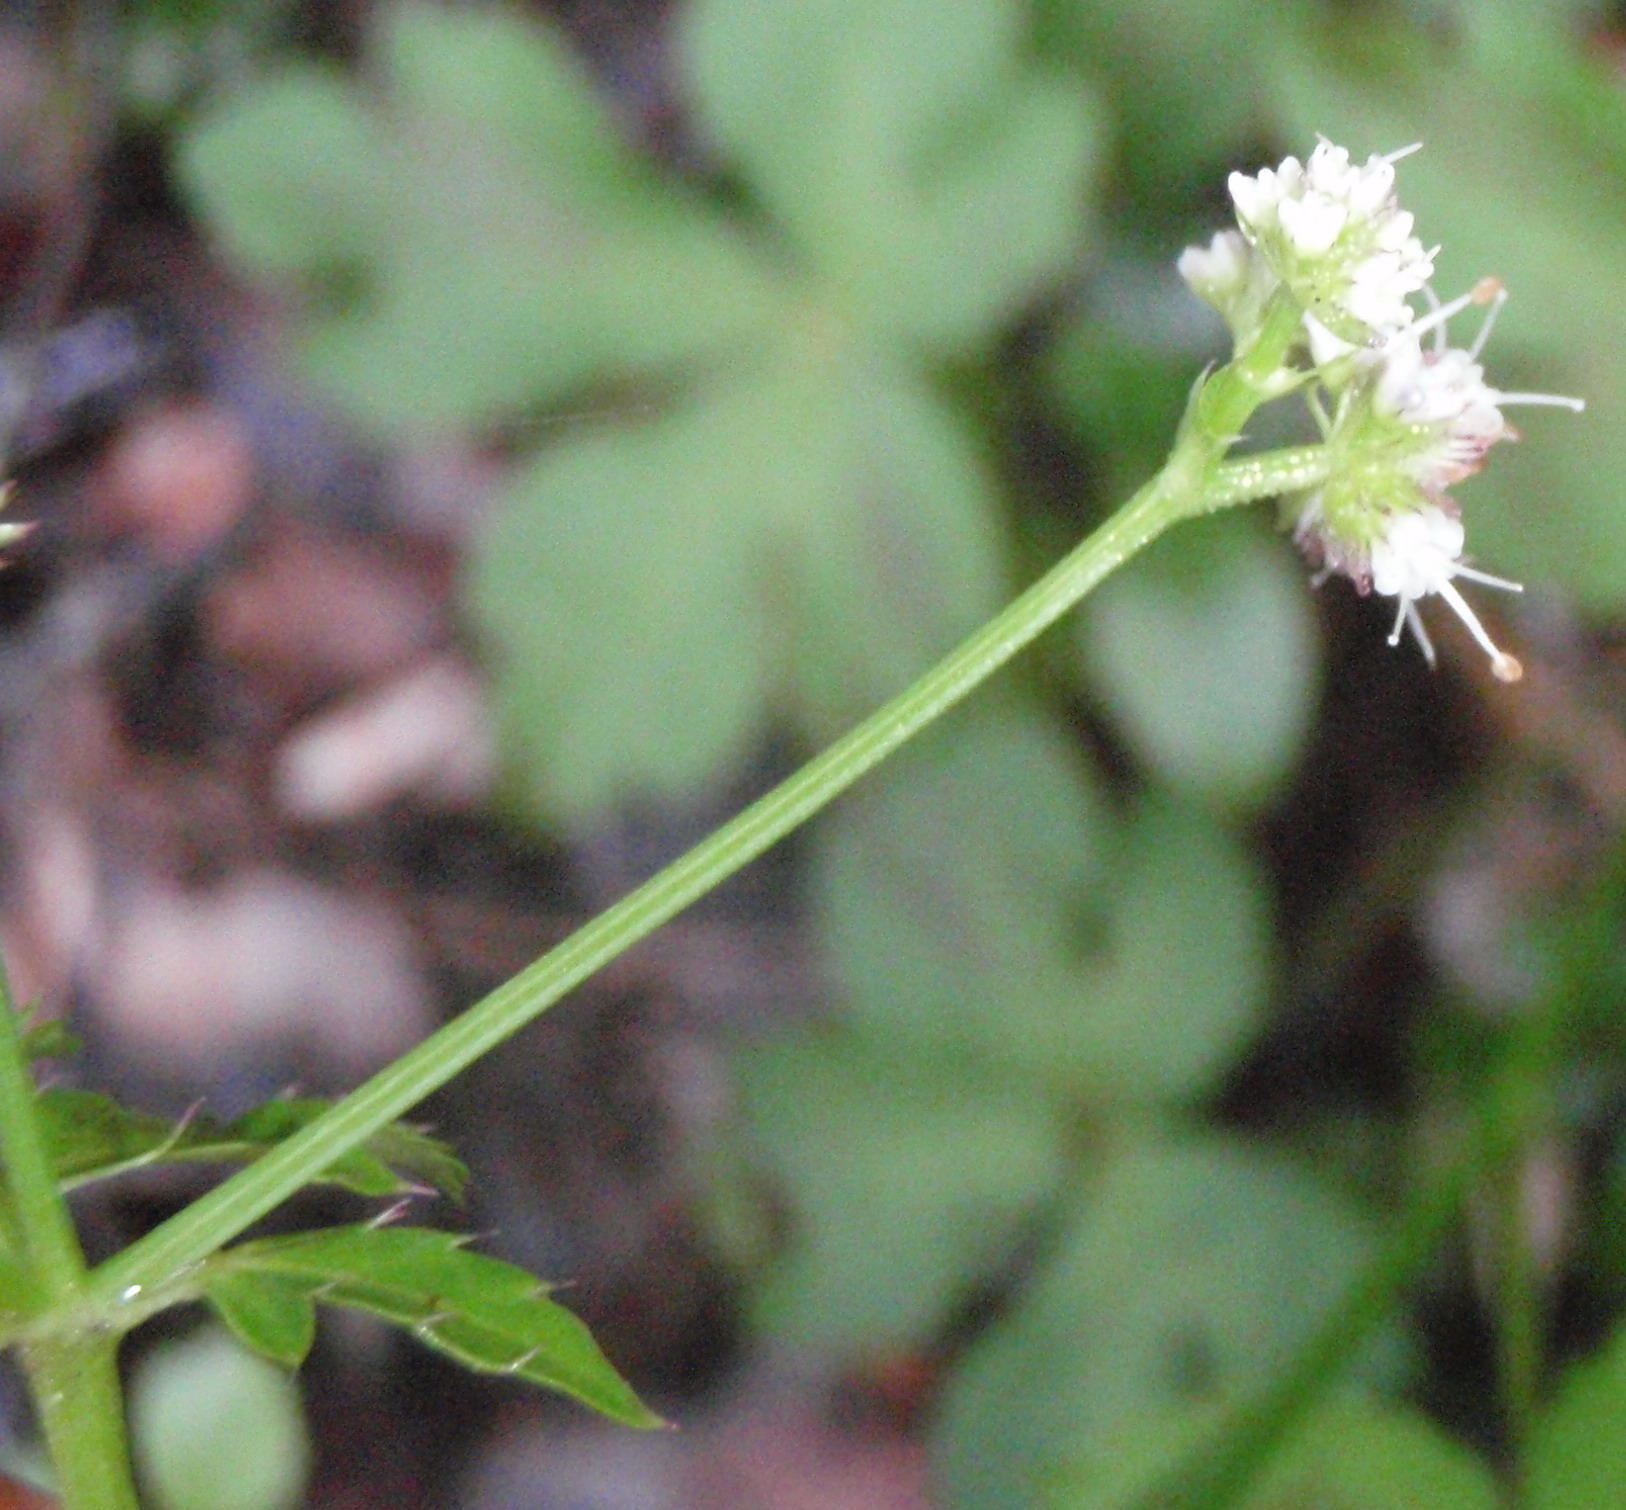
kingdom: Plantae
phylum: Tracheophyta
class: Magnoliopsida
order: Apiales
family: Apiaceae
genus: Sanicula
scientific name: Sanicula elata
